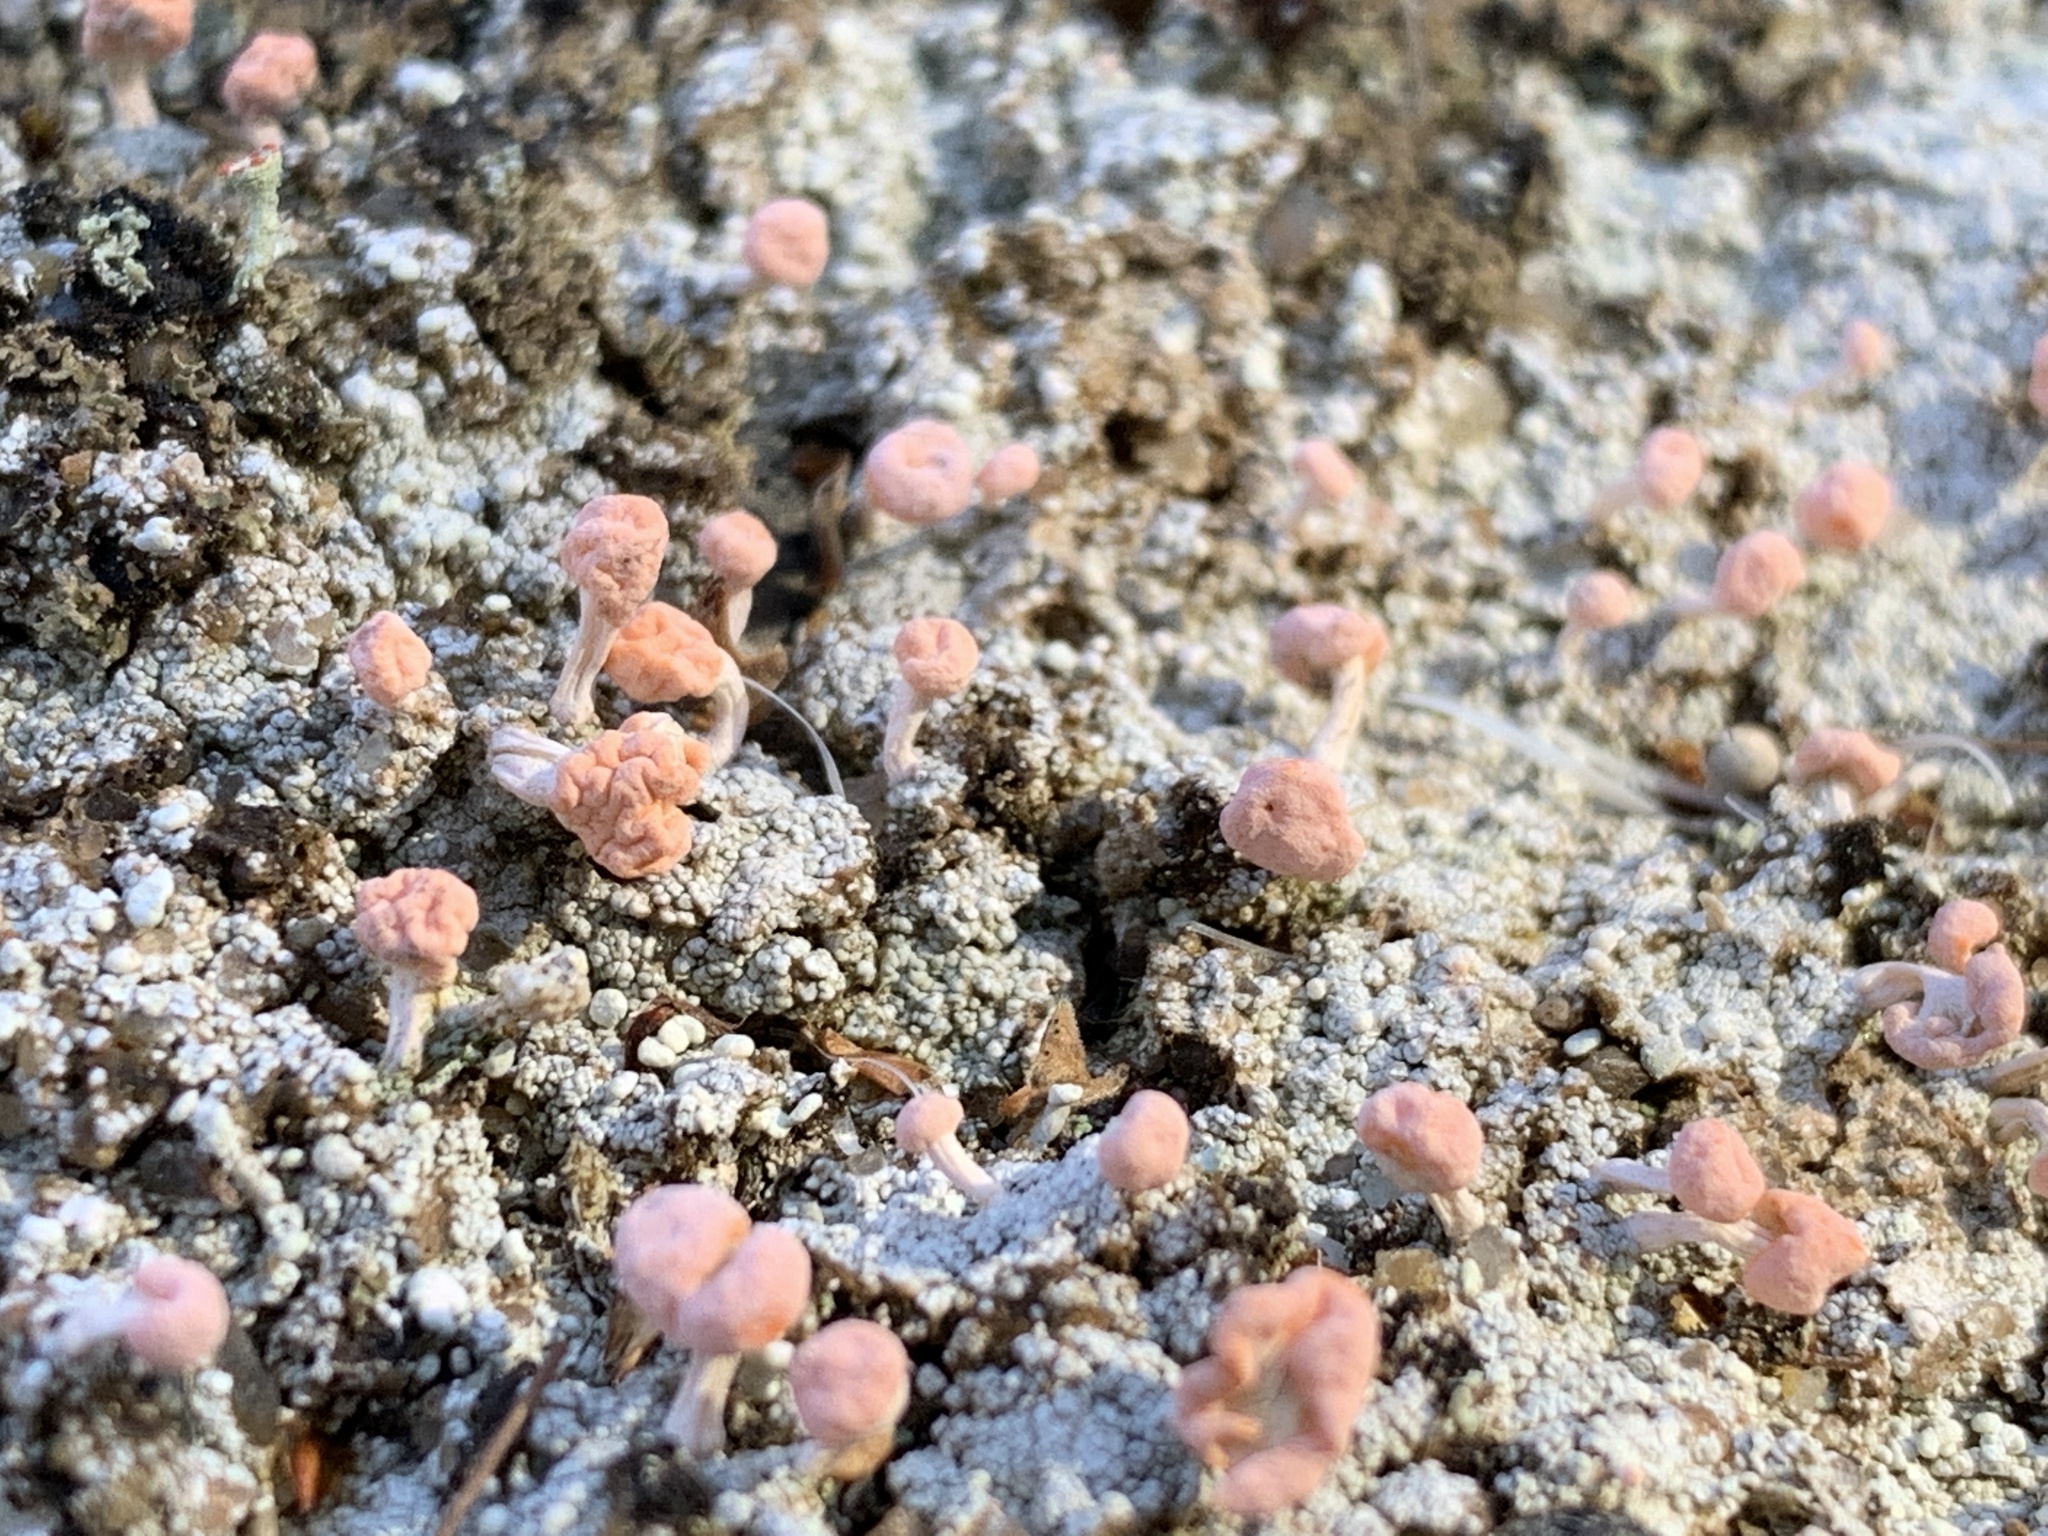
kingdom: Fungi
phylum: Ascomycota
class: Lecanoromycetes
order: Pertusariales
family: Icmadophilaceae
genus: Dibaeis
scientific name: Dibaeis baeomyces
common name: Pink earth lichen
